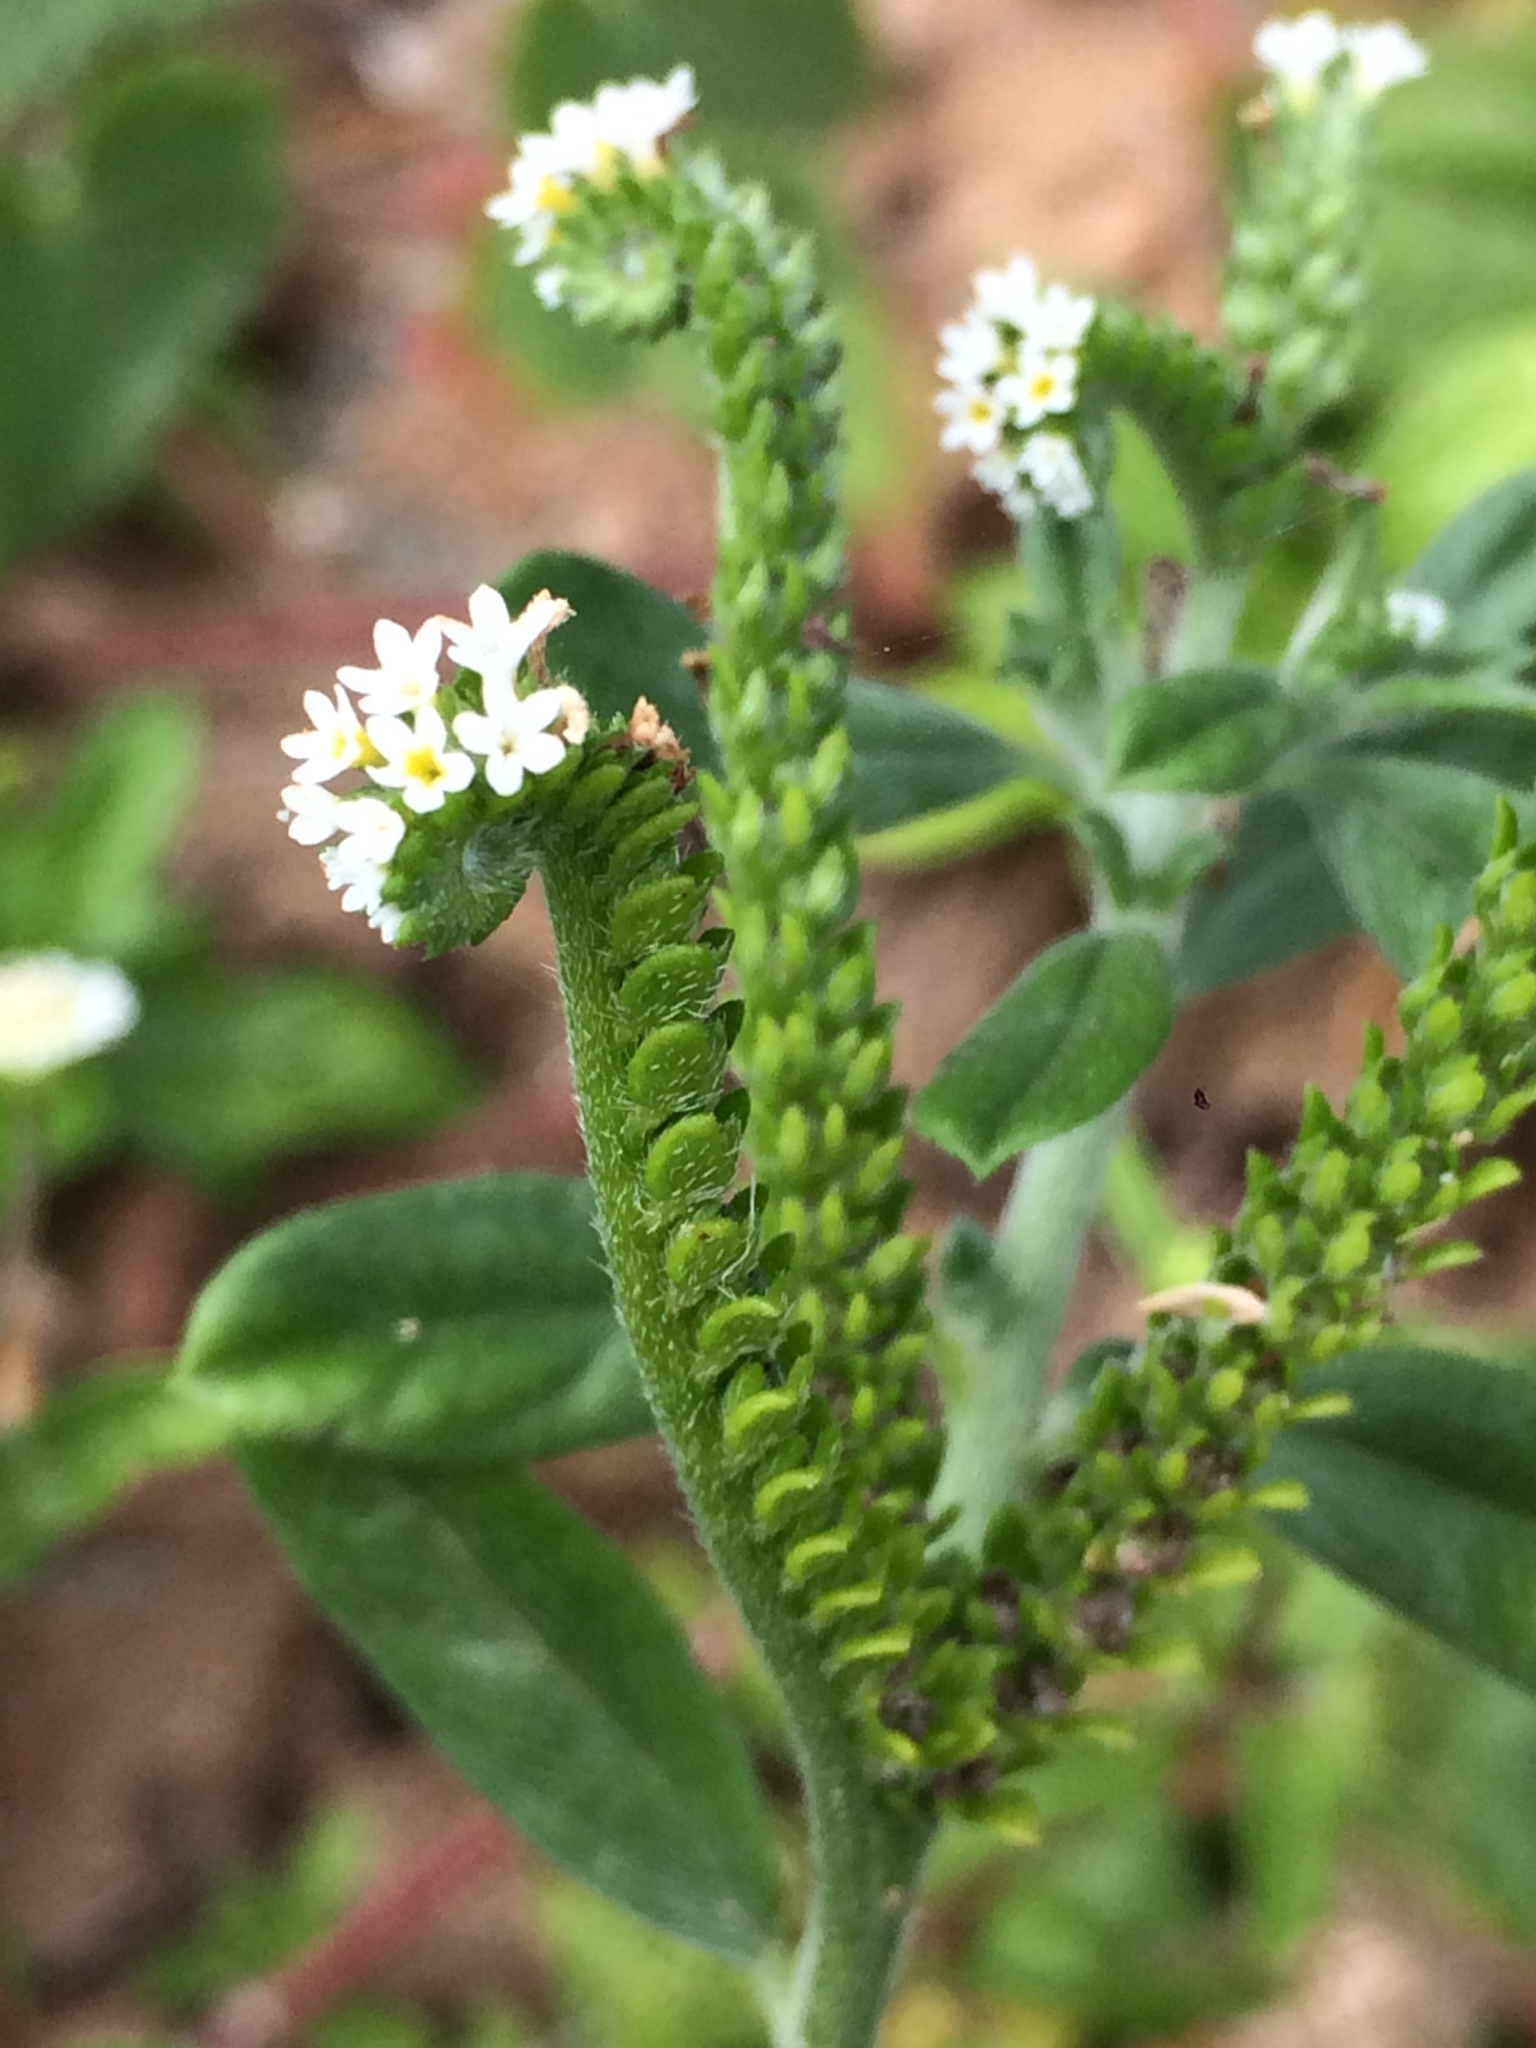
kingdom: Plantae
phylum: Tracheophyta
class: Magnoliopsida
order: Boraginales
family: Heliotropiaceae
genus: Euploca
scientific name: Euploca procumbens
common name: Fourspike heliotrope
